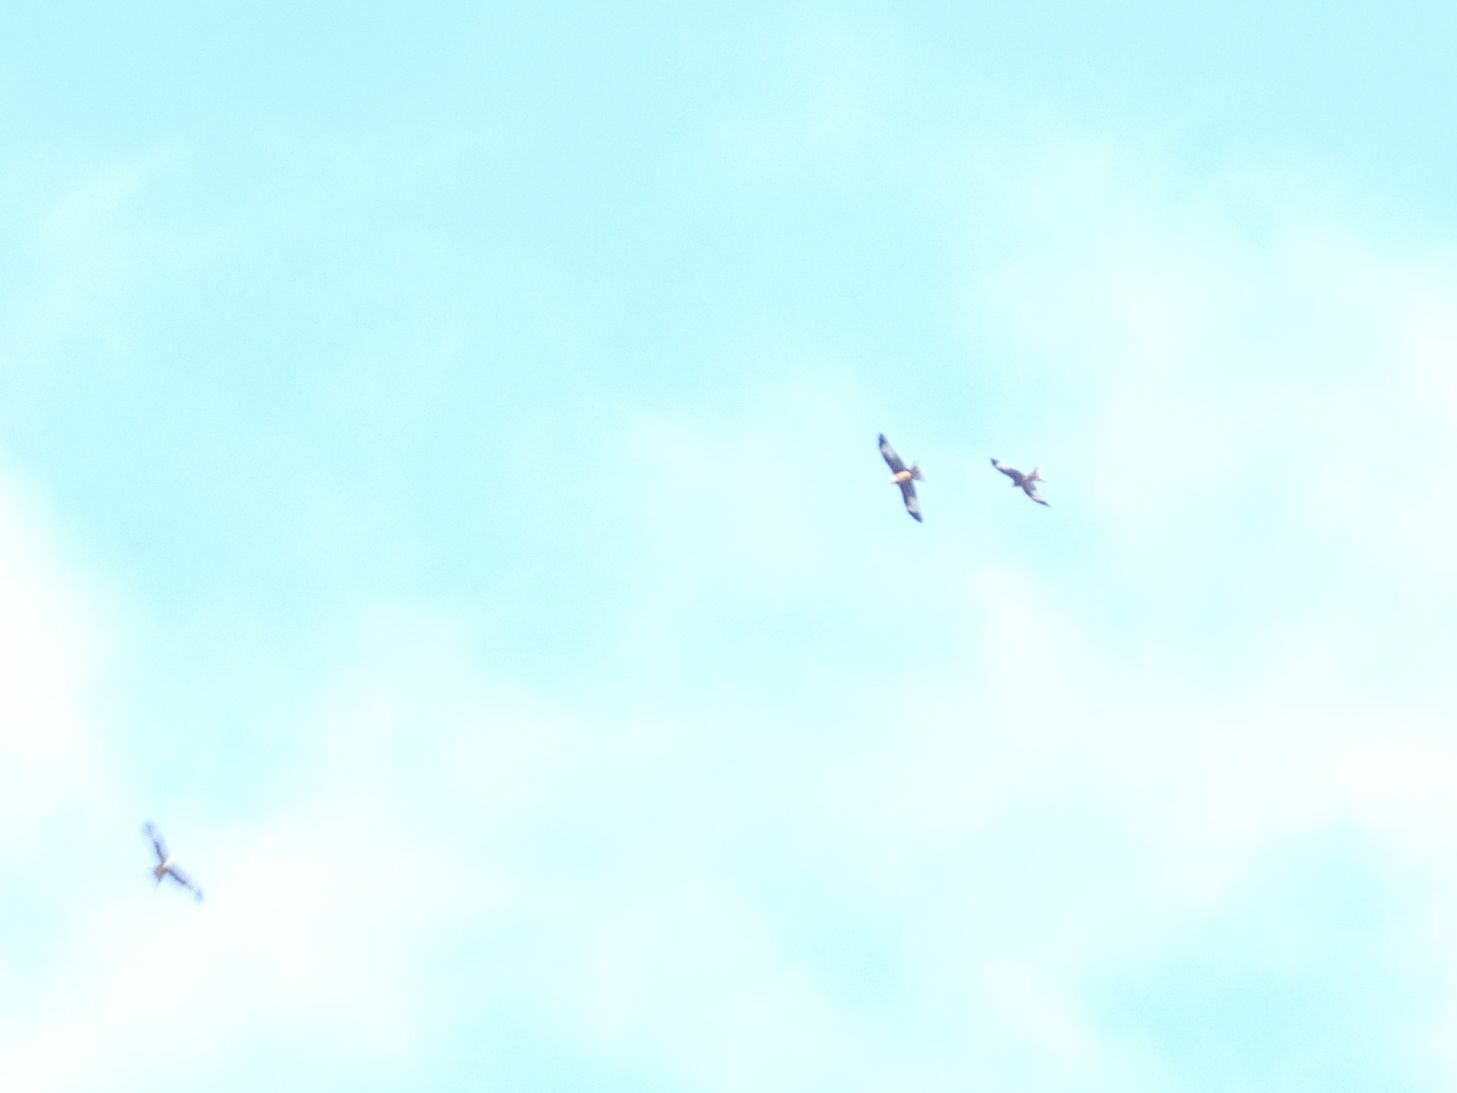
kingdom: Animalia
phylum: Chordata
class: Aves
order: Accipitriformes
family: Accipitridae
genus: Milvus
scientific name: Milvus milvus
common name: Red kite
